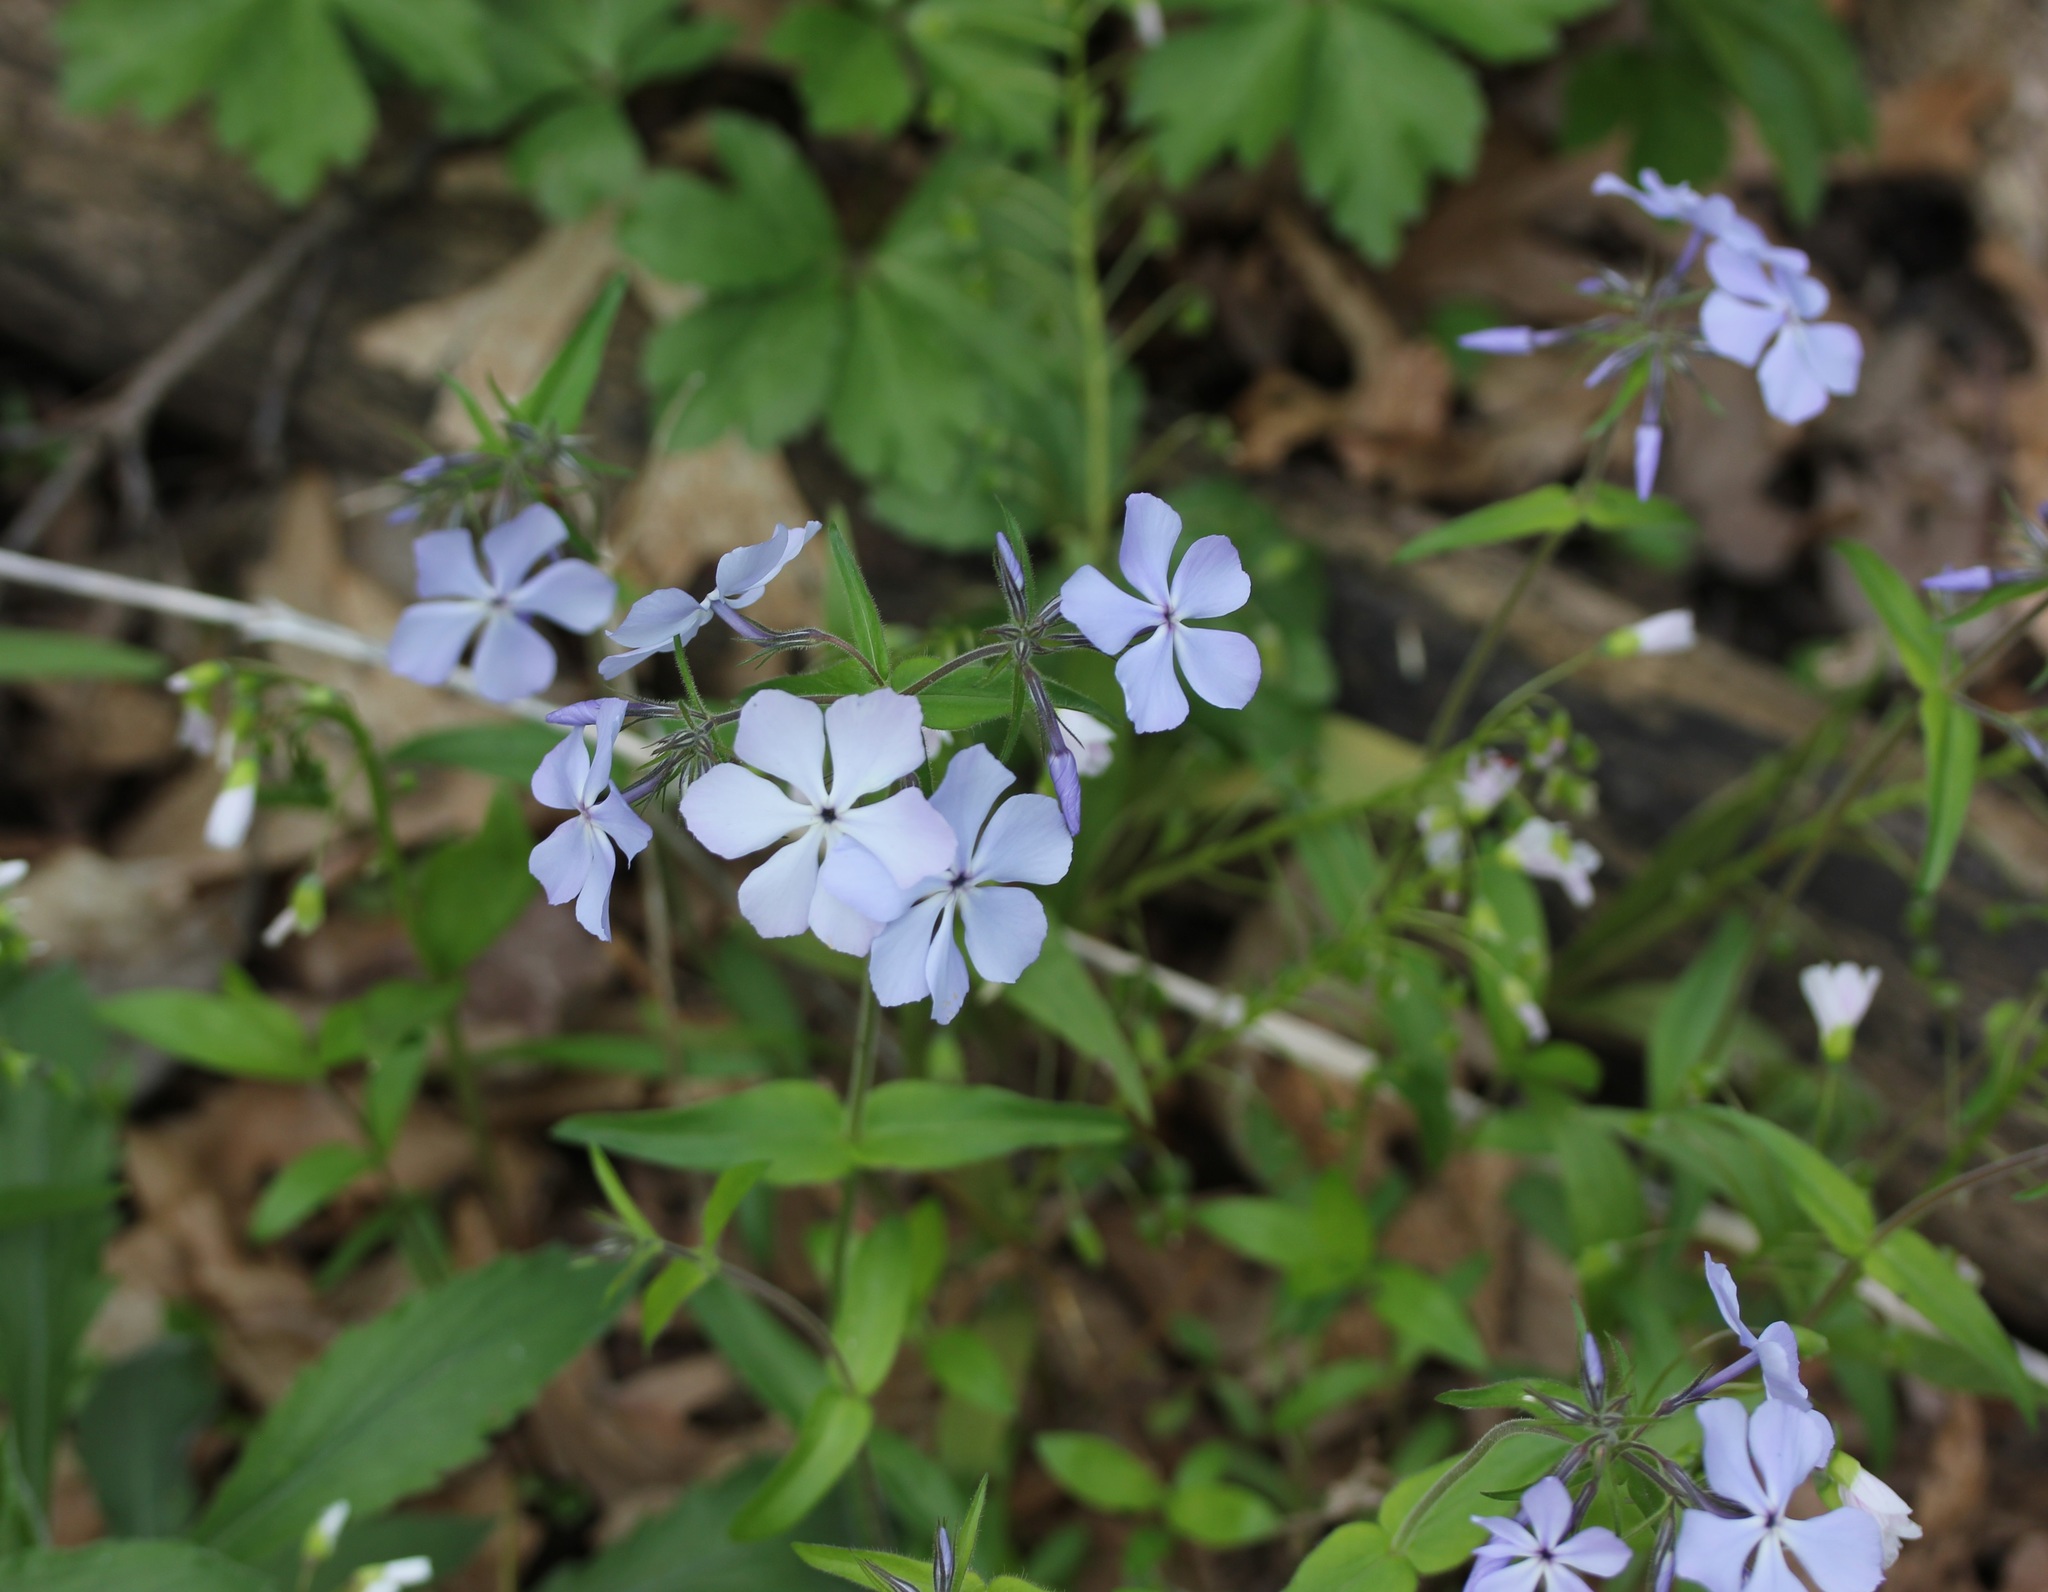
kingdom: Plantae
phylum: Tracheophyta
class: Magnoliopsida
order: Ericales
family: Polemoniaceae
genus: Phlox
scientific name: Phlox divaricata
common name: Blue phlox
